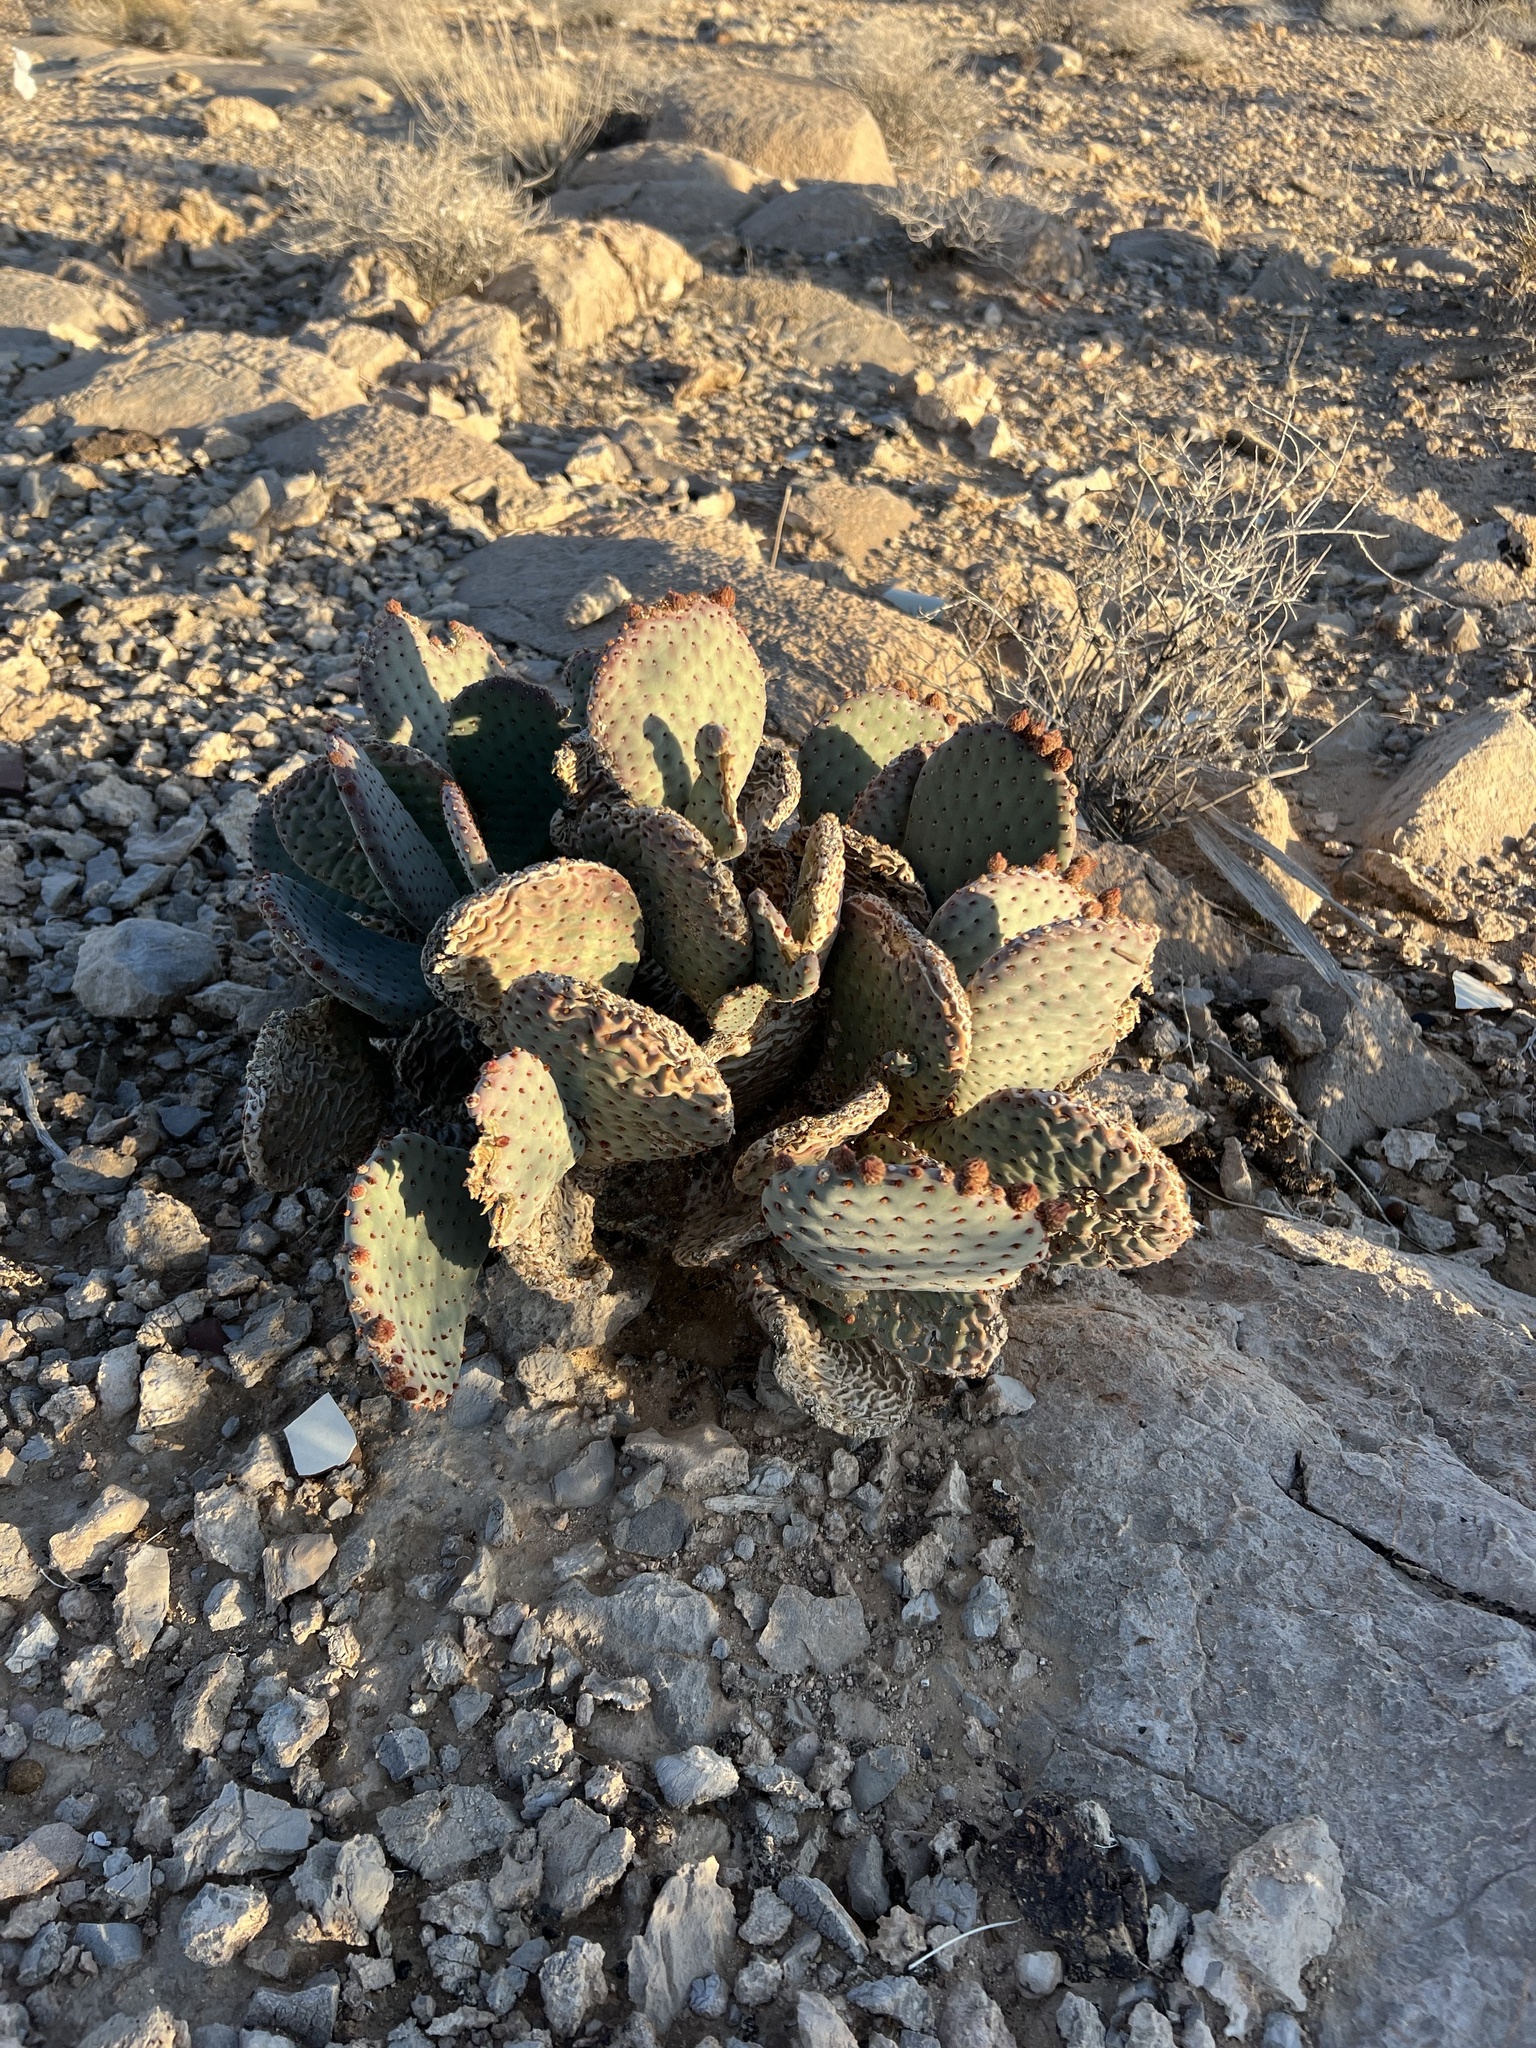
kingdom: Plantae
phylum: Tracheophyta
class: Magnoliopsida
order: Caryophyllales
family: Cactaceae
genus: Opuntia
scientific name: Opuntia basilaris
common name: Beavertail prickly-pear
